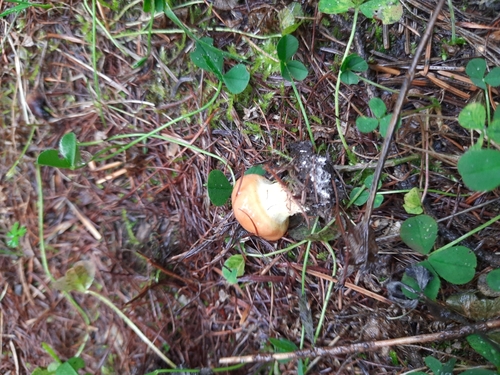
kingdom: Fungi
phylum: Basidiomycota
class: Agaricomycetes
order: Boletales
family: Suillaceae
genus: Suillus
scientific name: Suillus grevillei
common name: Larch bolete
